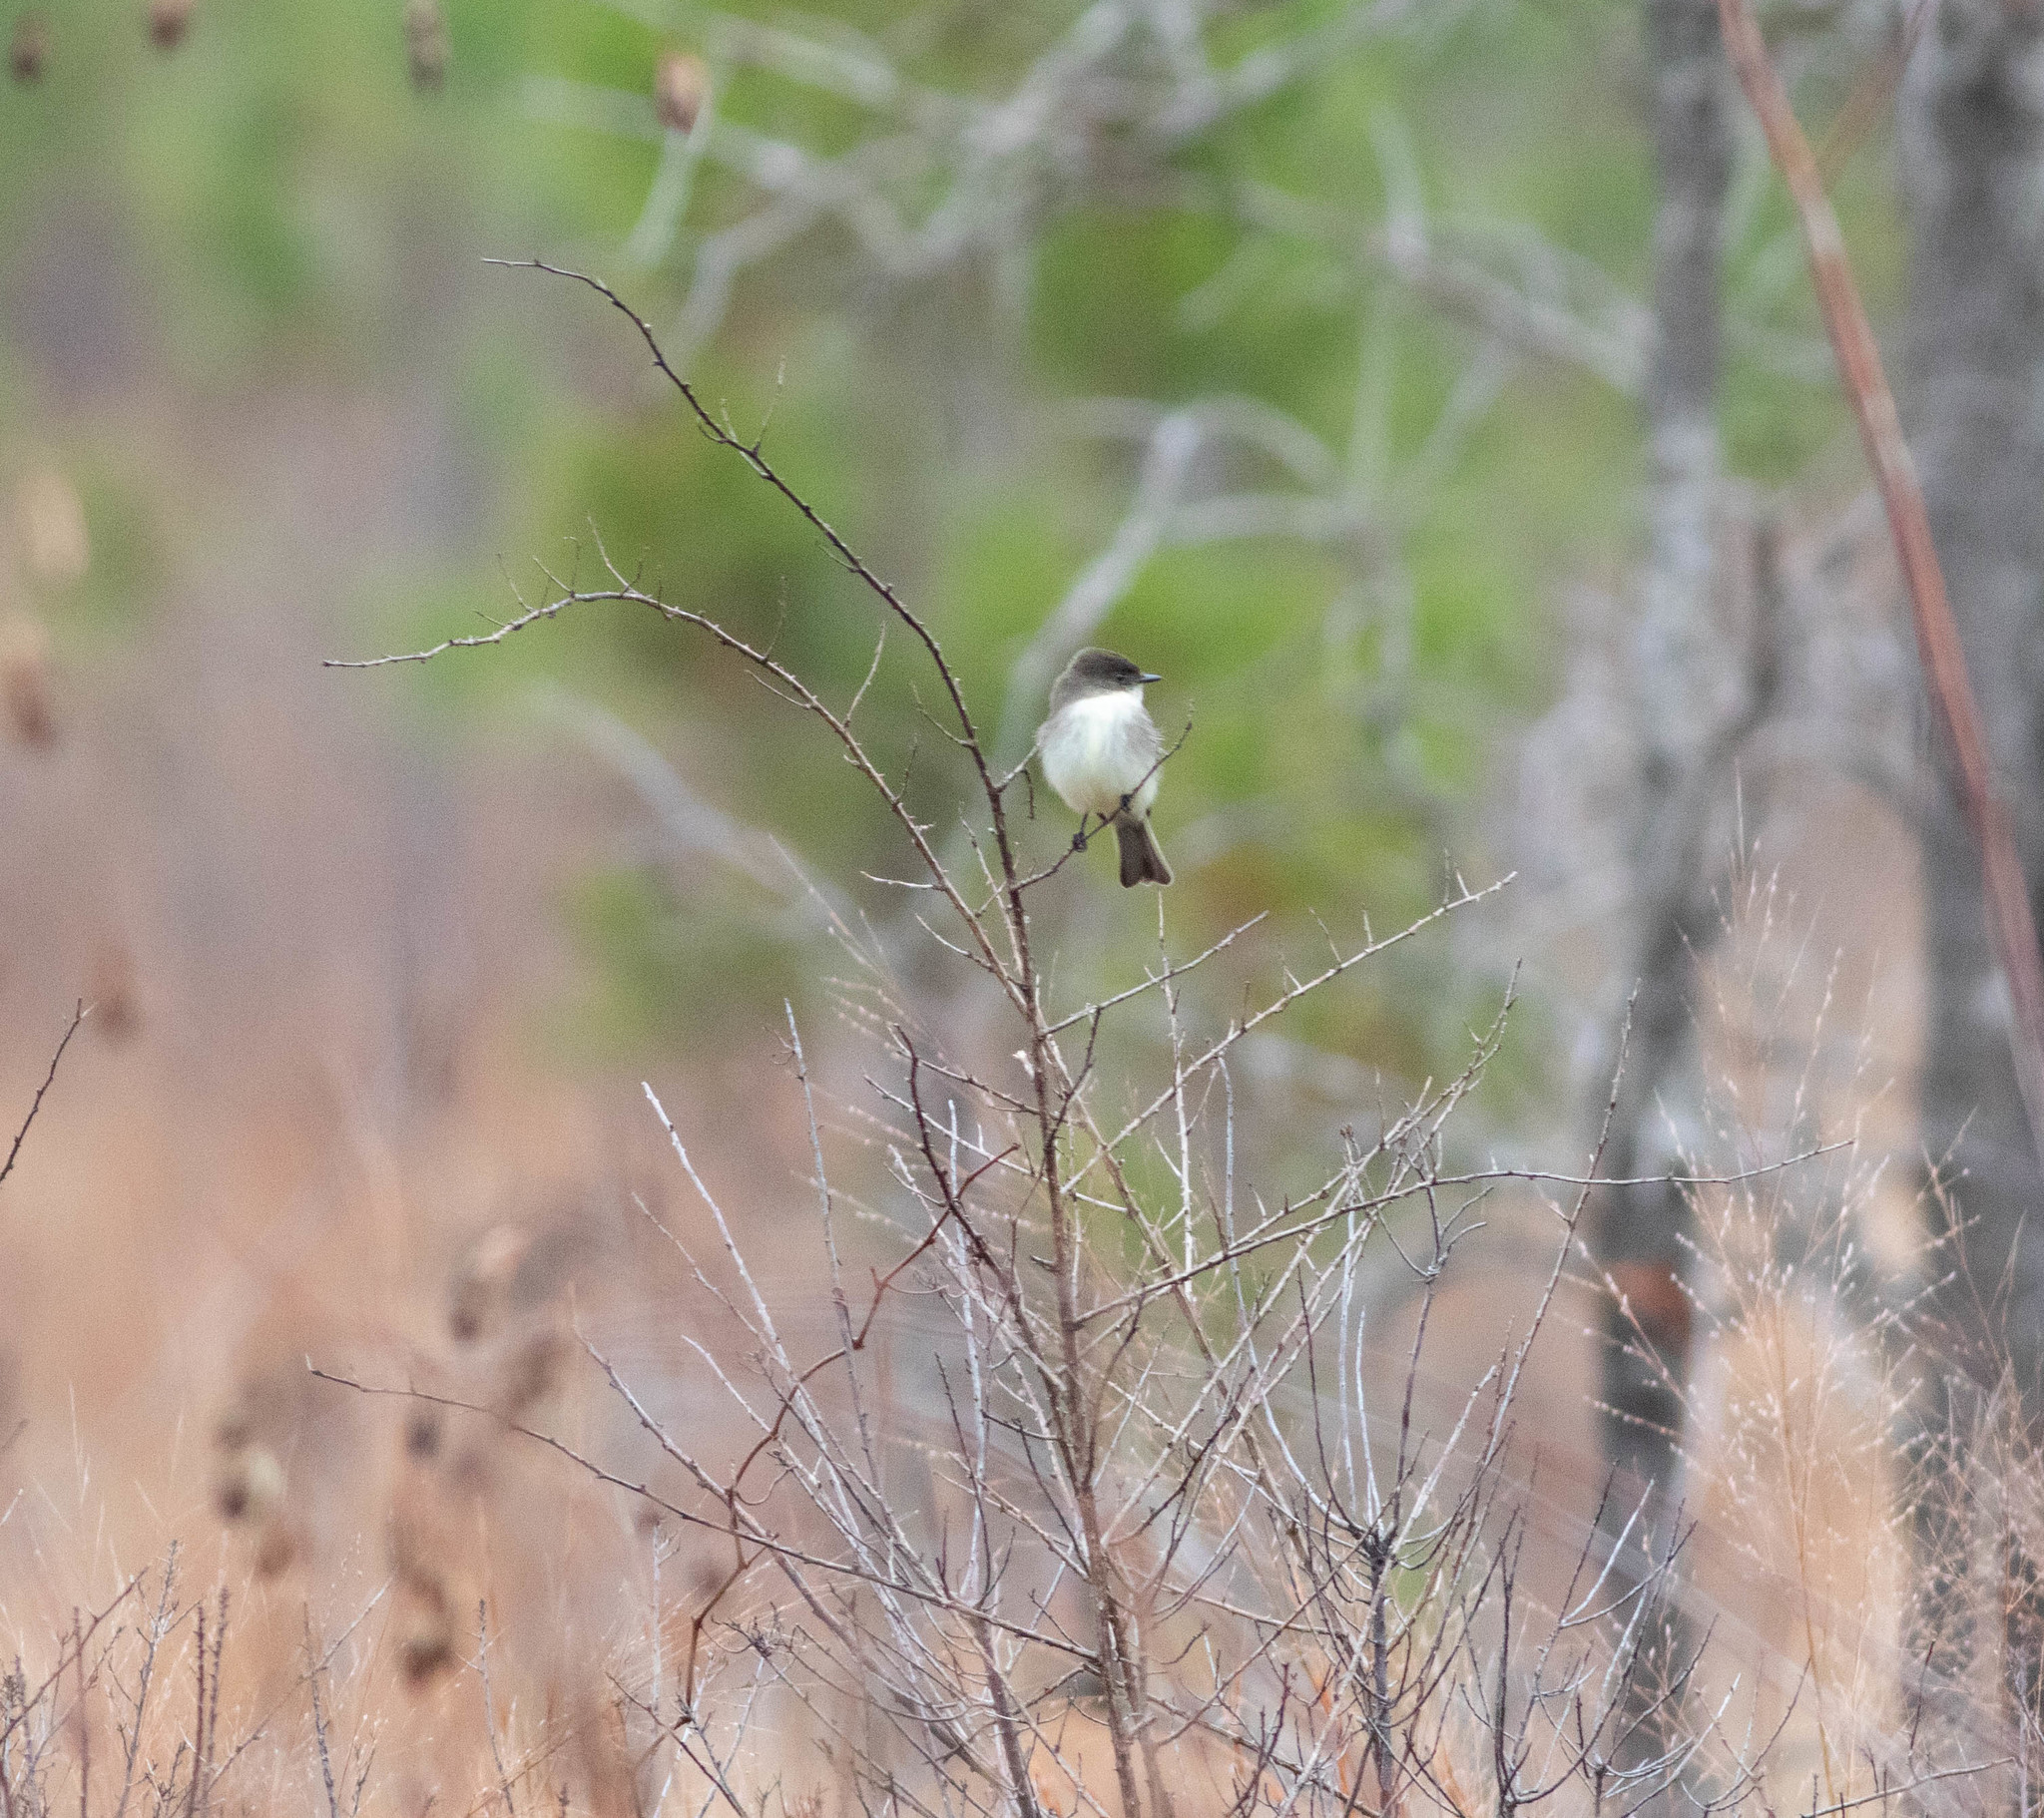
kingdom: Animalia
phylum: Chordata
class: Aves
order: Passeriformes
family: Tyrannidae
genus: Sayornis
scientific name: Sayornis phoebe
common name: Eastern phoebe
